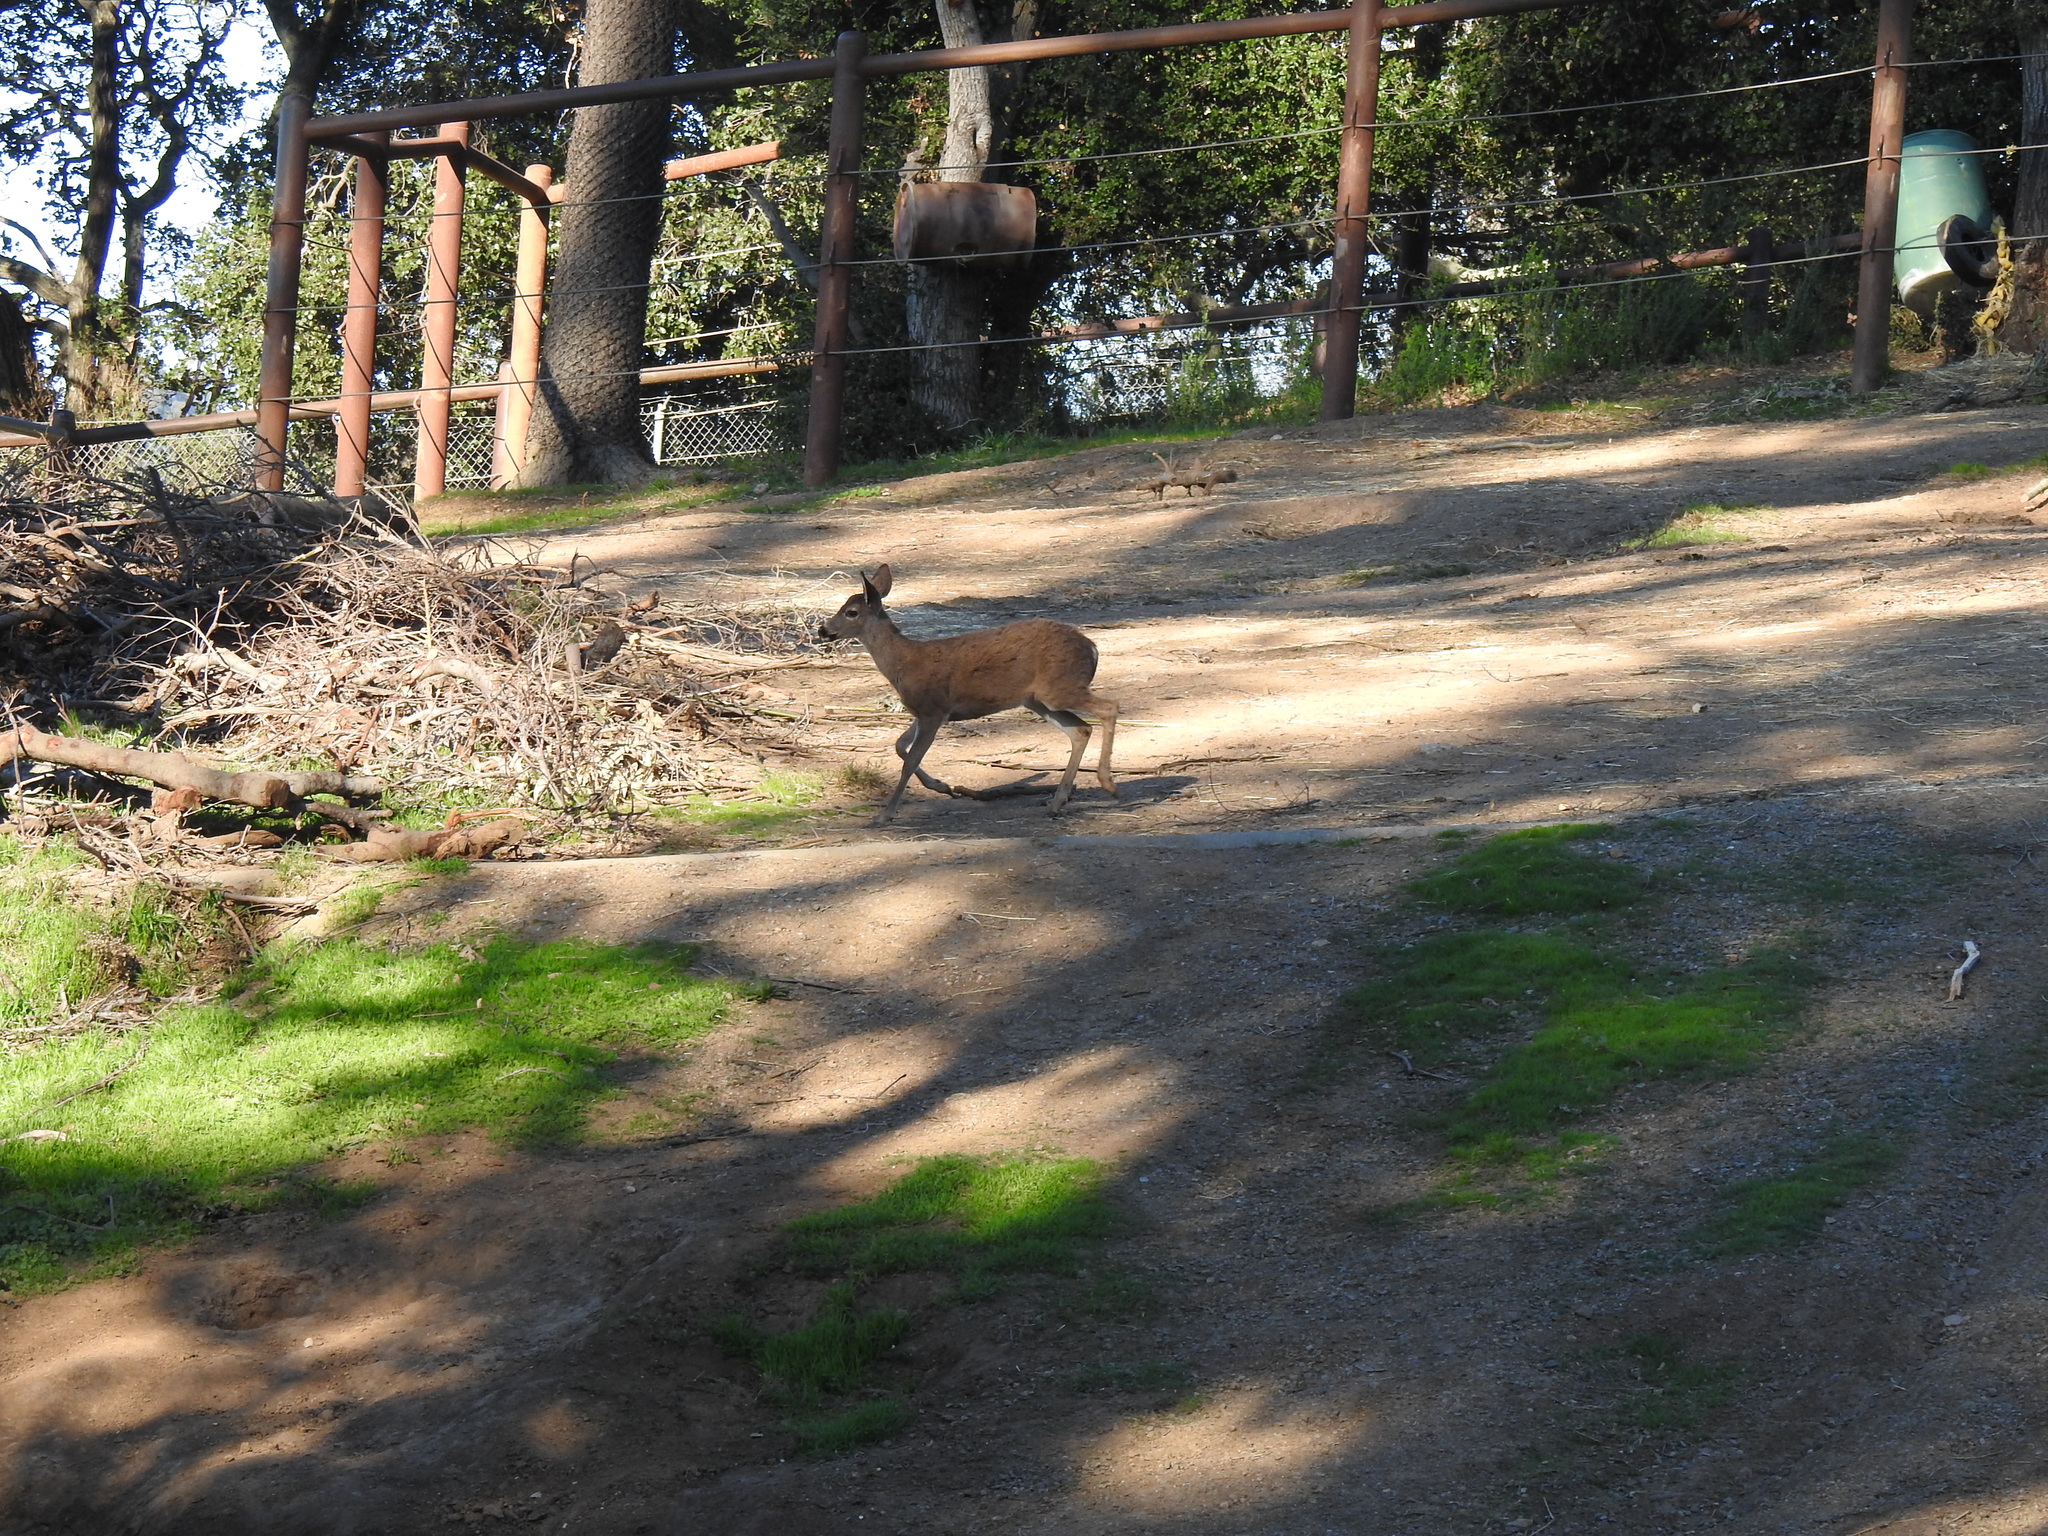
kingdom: Animalia
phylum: Chordata
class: Mammalia
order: Artiodactyla
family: Cervidae
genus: Odocoileus
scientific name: Odocoileus hemionus
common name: Mule deer
